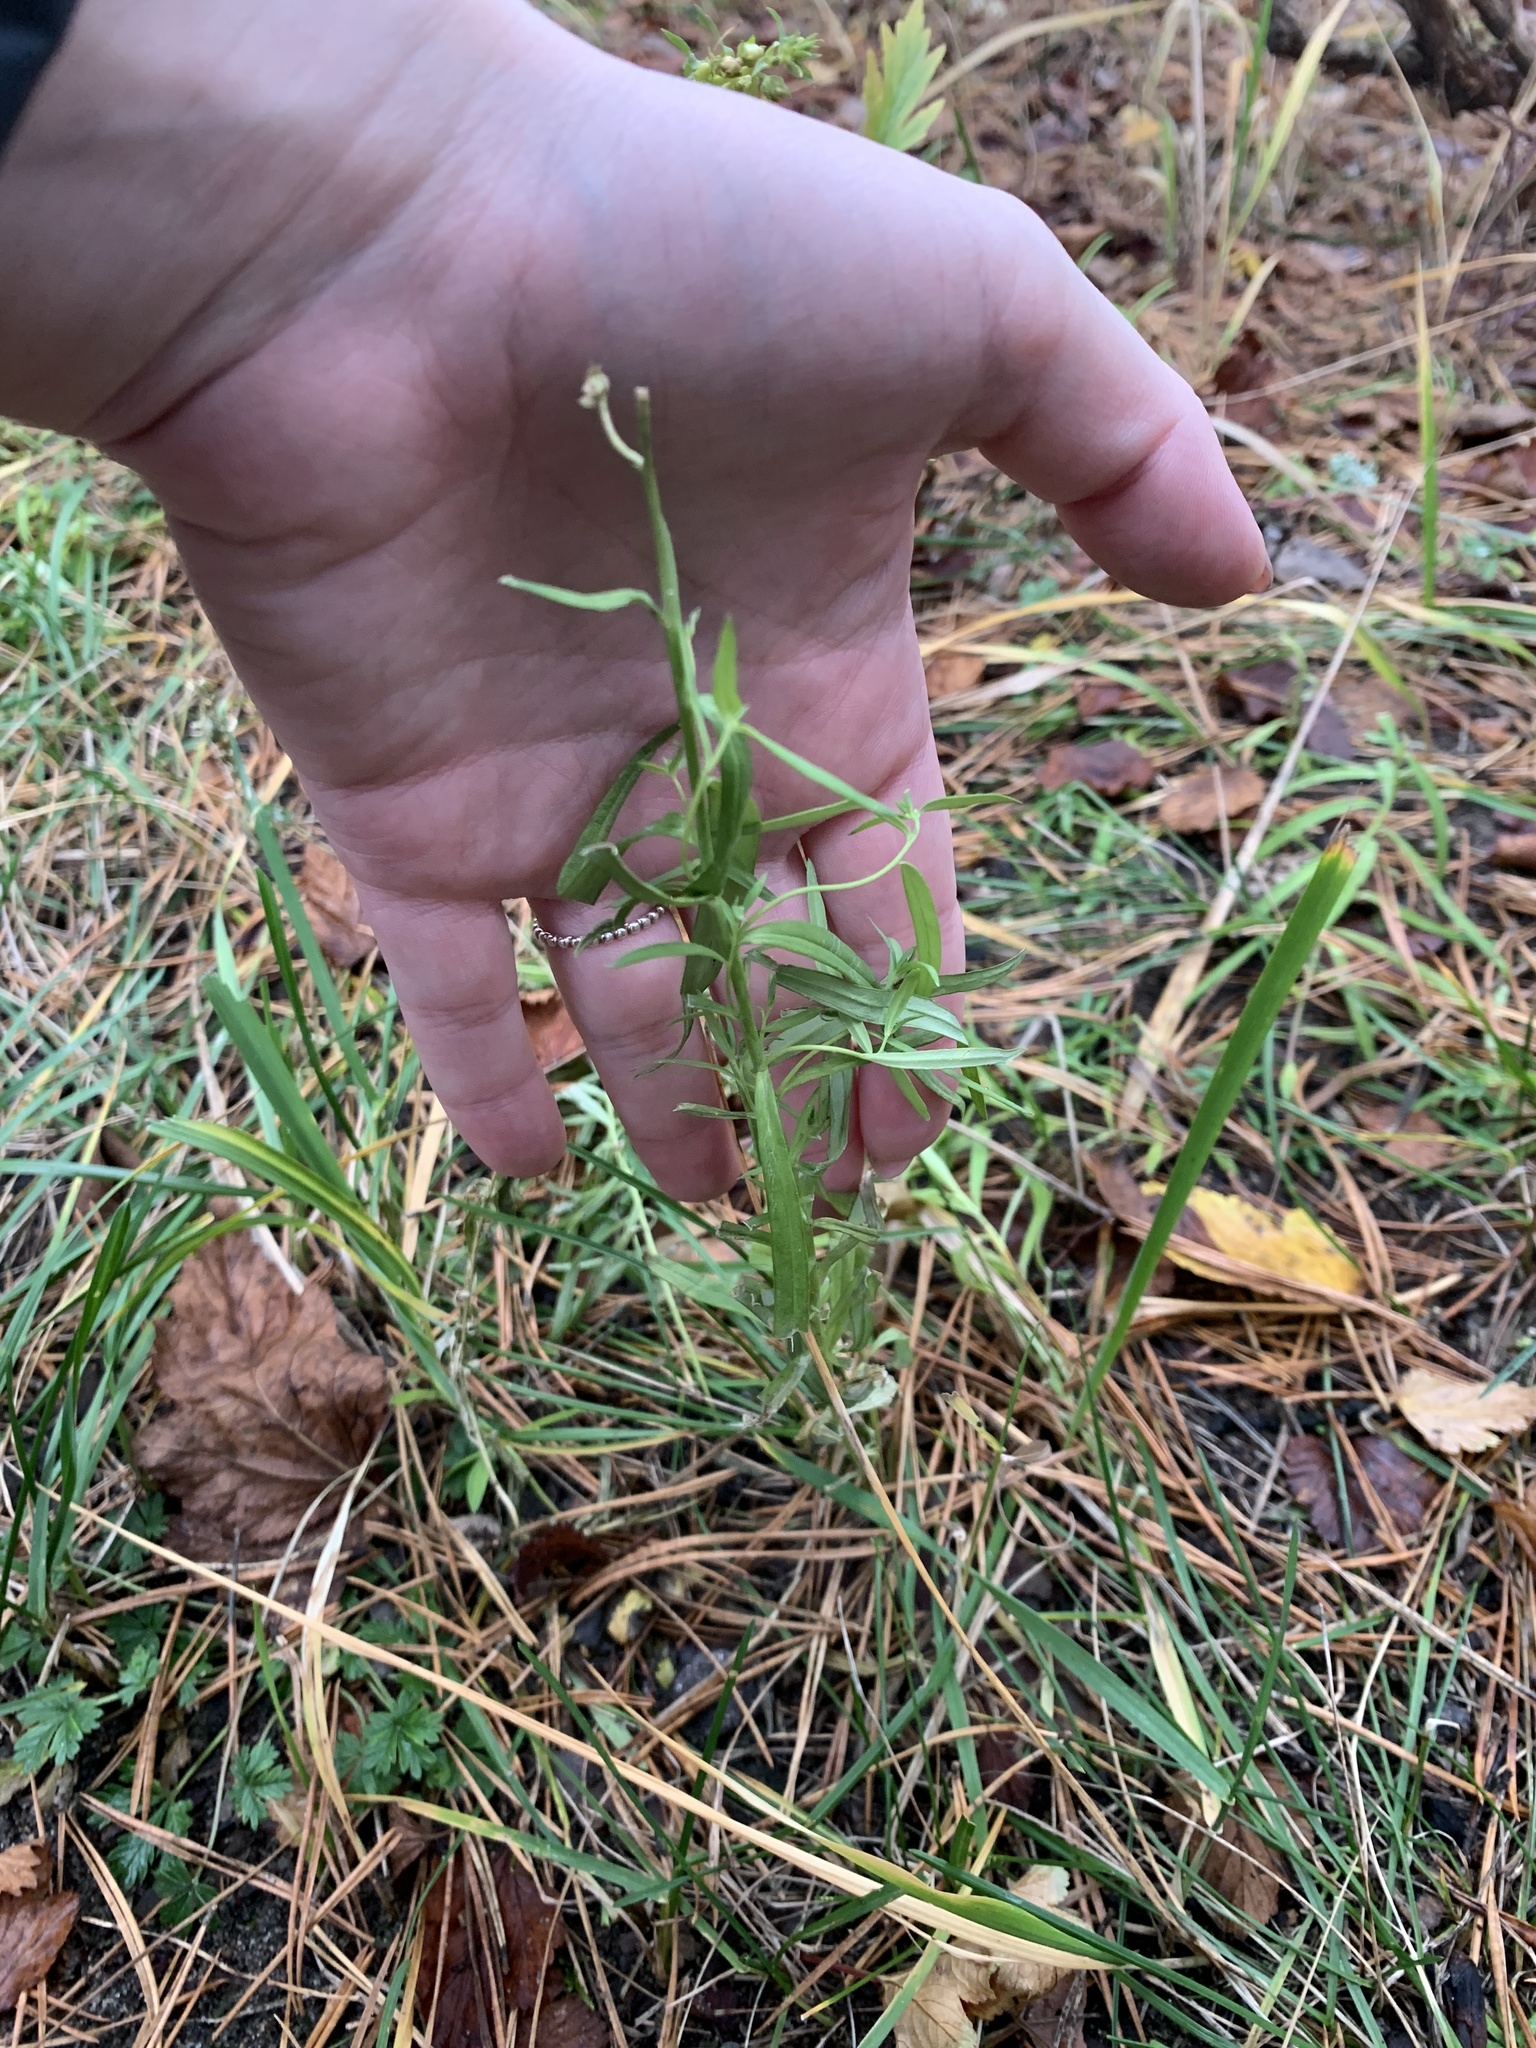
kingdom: Plantae
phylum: Tracheophyta
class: Magnoliopsida
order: Lamiales
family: Plantaginaceae
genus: Linaria
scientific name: Linaria vulgaris
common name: Butter and eggs
